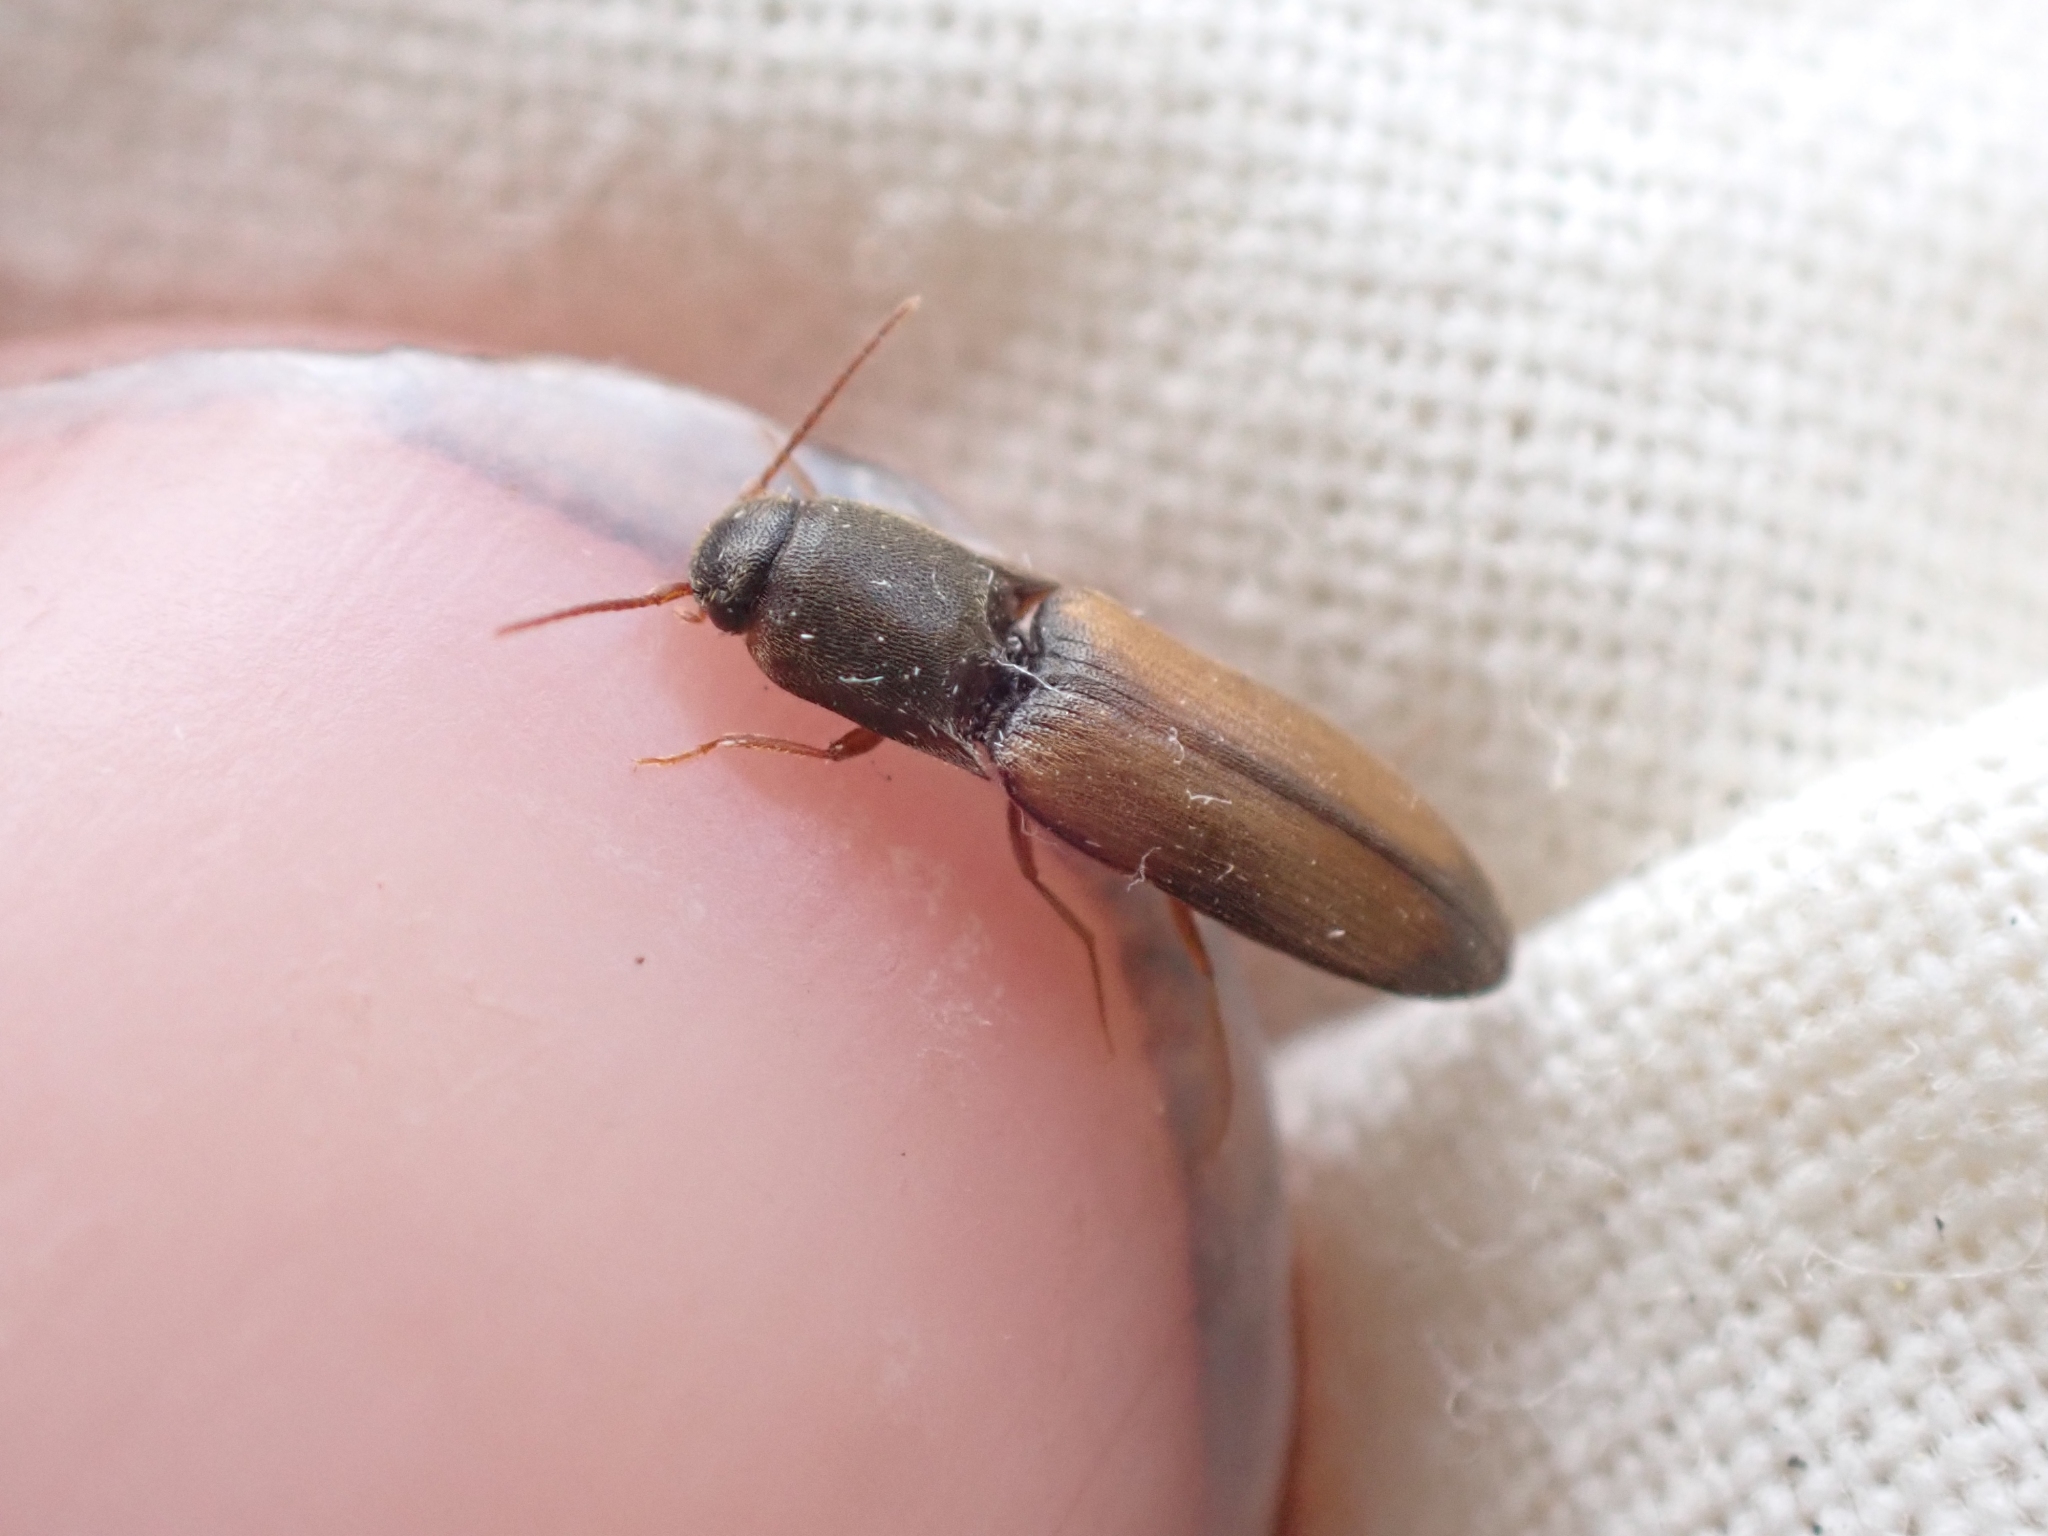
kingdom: Animalia
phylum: Arthropoda
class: Insecta
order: Coleoptera
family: Elateridae
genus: Idolus
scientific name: Idolus occidentalis
